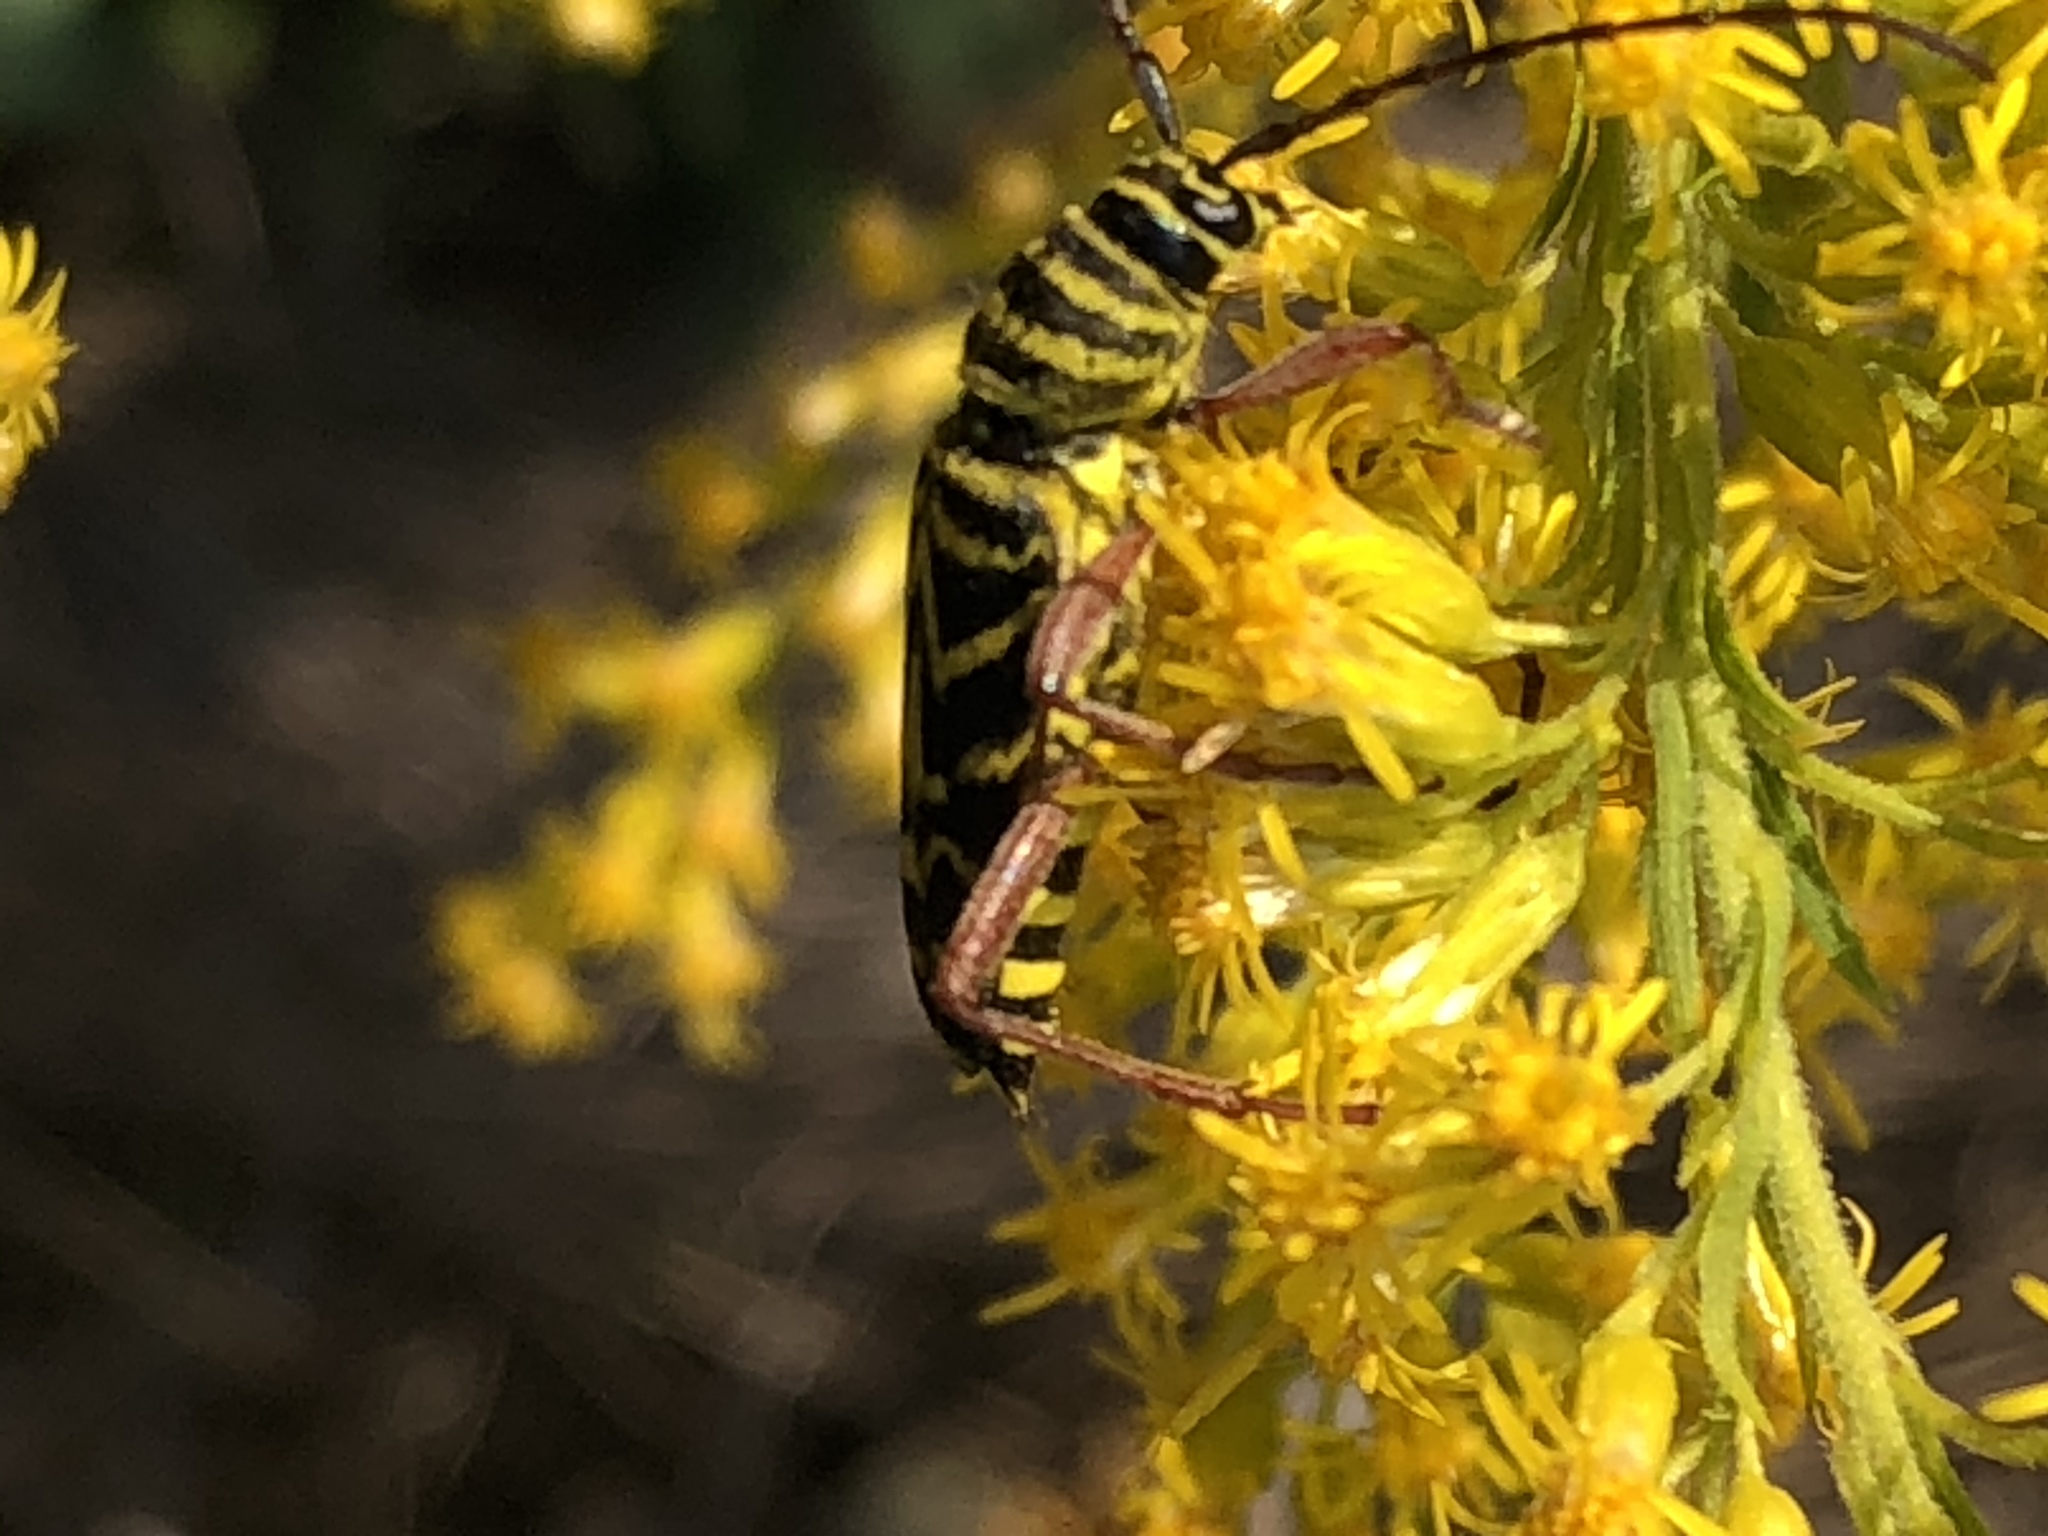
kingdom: Animalia
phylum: Arthropoda
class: Insecta
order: Coleoptera
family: Cerambycidae
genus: Megacyllene
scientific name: Megacyllene robiniae
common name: Locust borer
